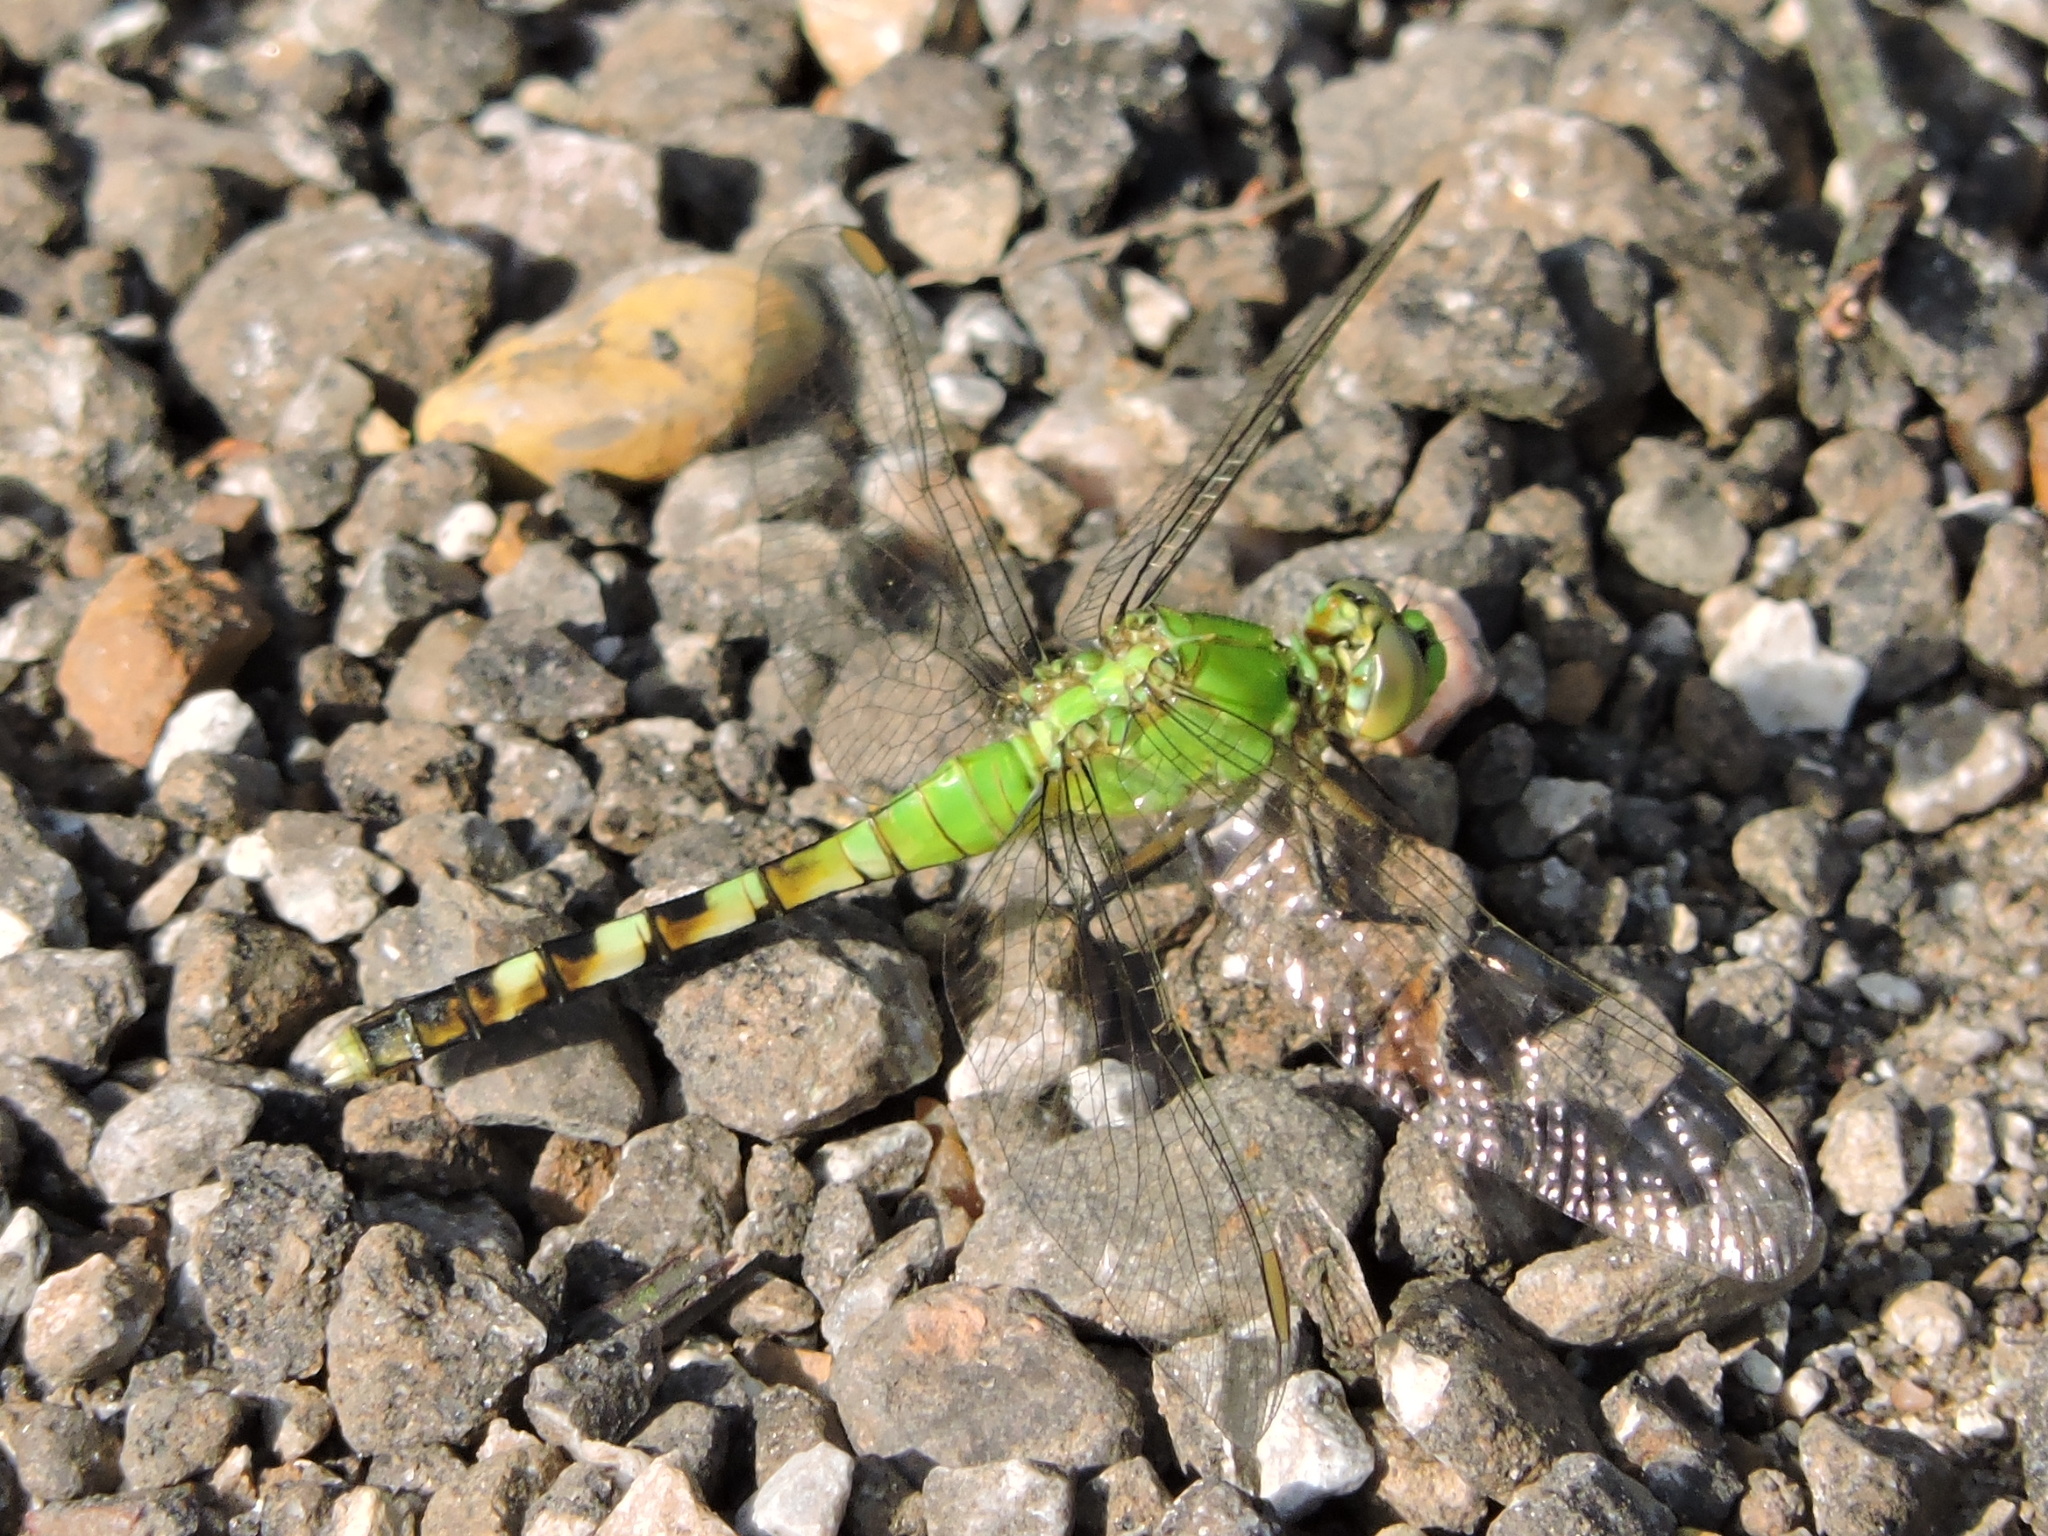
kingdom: Animalia
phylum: Arthropoda
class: Insecta
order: Odonata
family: Libellulidae
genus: Erythemis
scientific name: Erythemis simplicicollis
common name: Eastern pondhawk
